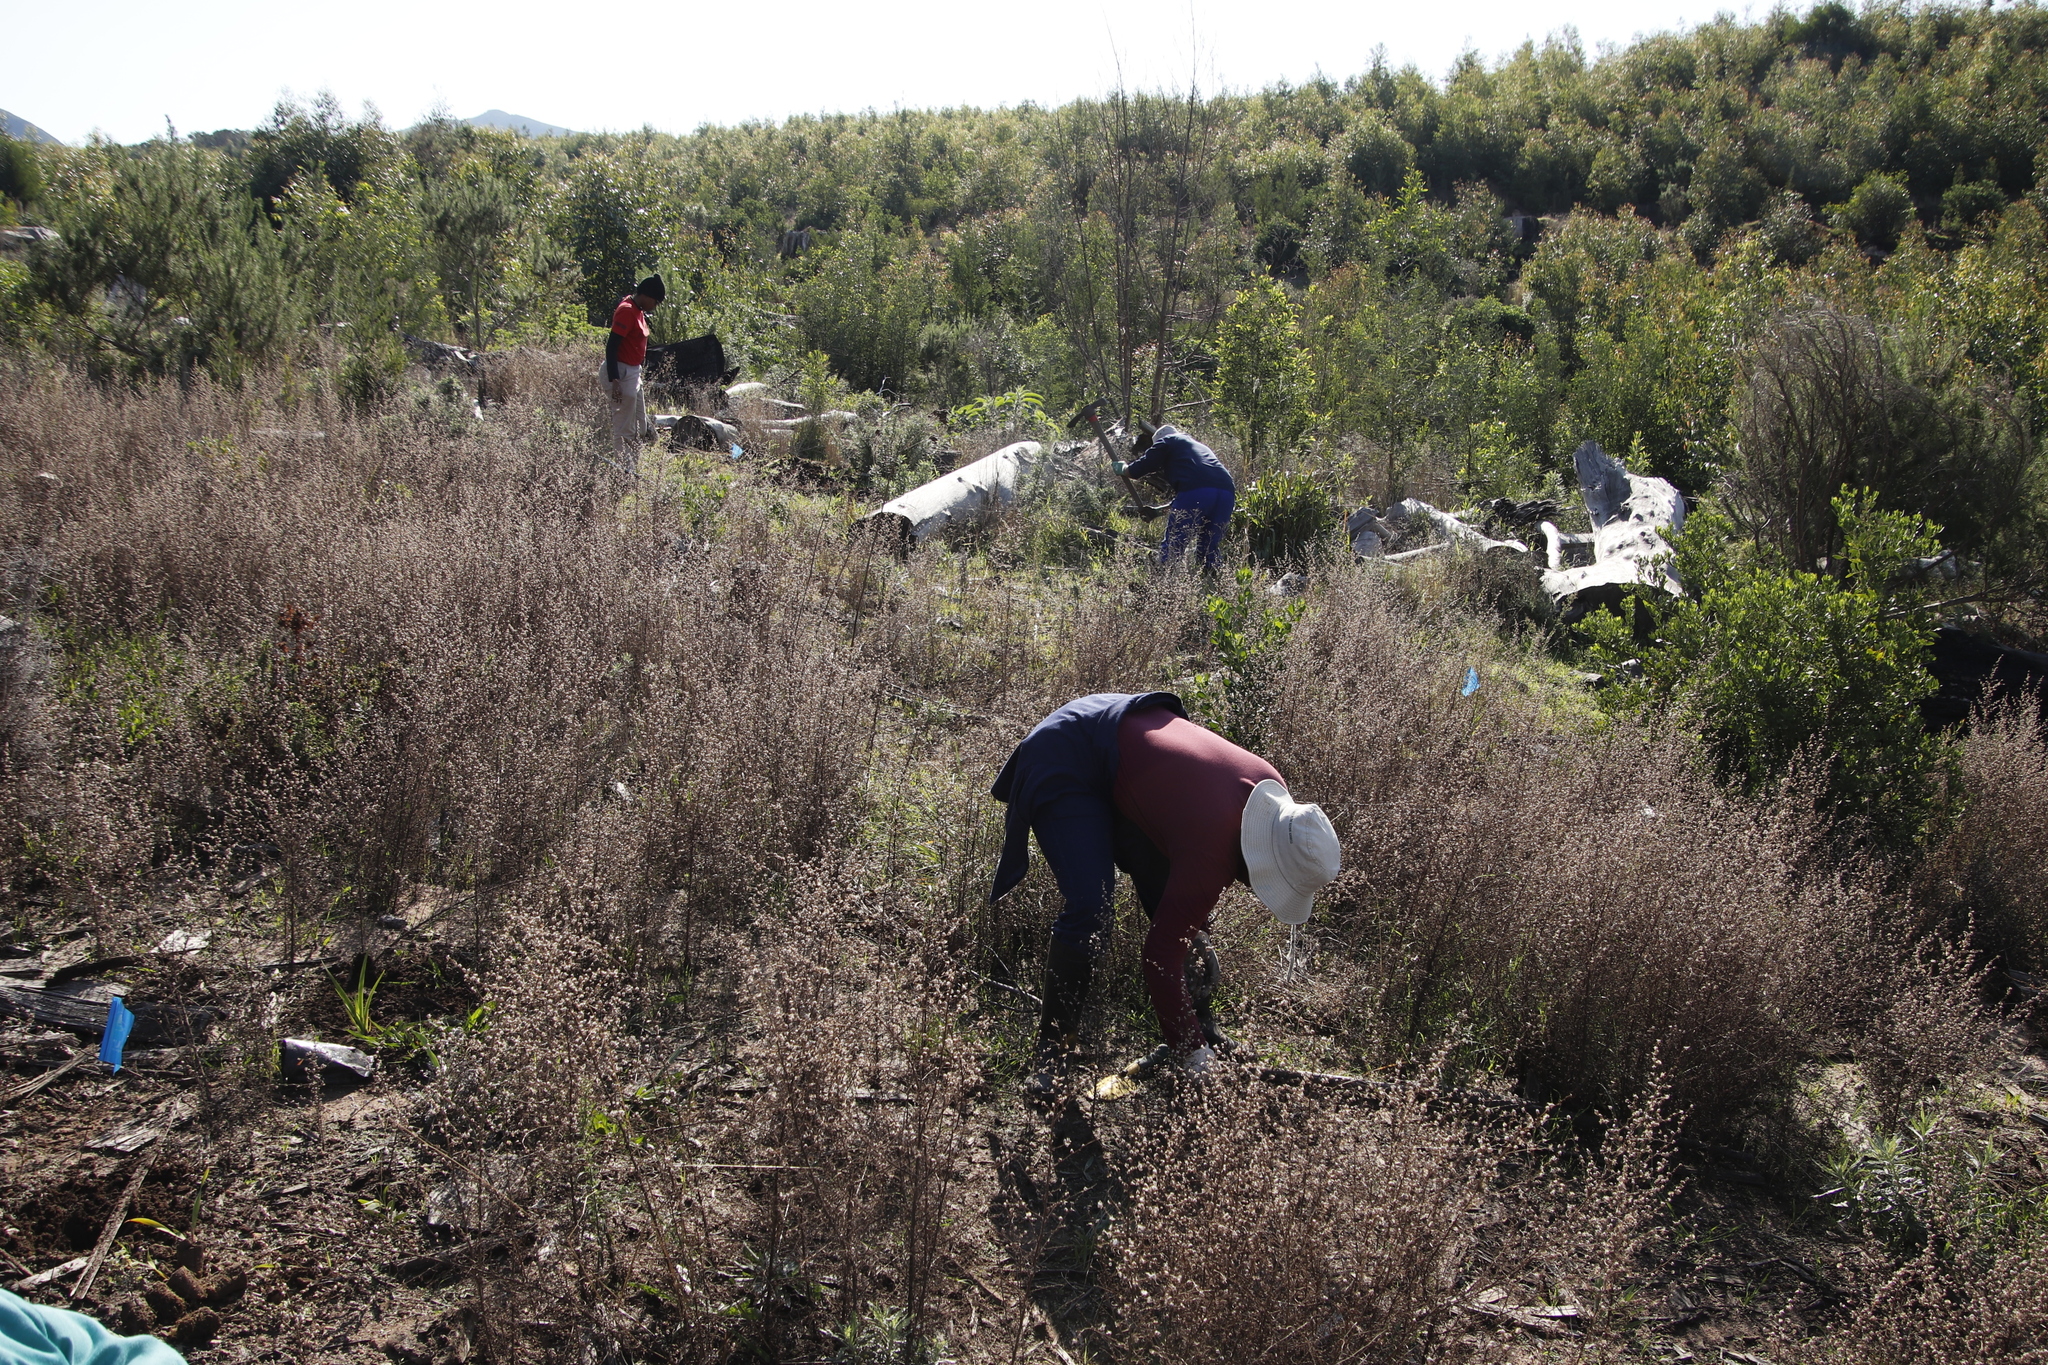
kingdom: Plantae
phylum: Tracheophyta
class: Magnoliopsida
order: Asterales
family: Asteraceae
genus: Dittrichia
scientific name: Dittrichia graveolens
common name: Stinking fleabane
